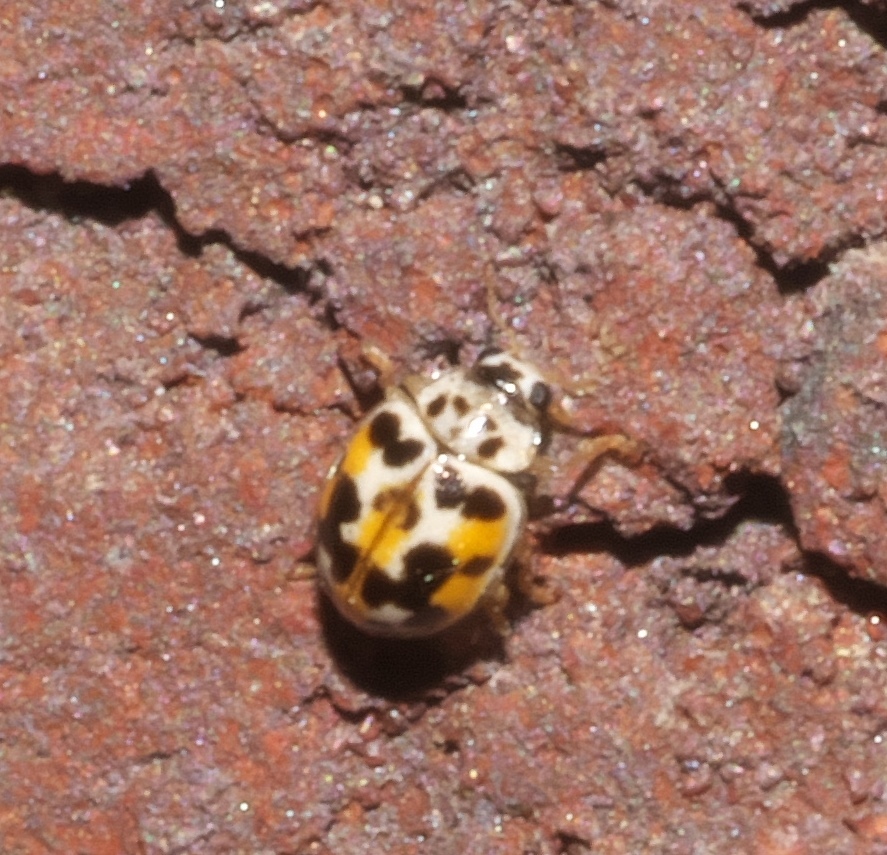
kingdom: Animalia
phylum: Arthropoda
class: Insecta
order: Coleoptera
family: Coccinellidae
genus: Psyllobora
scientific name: Psyllobora vigintimaculata
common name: Ladybird beetle
